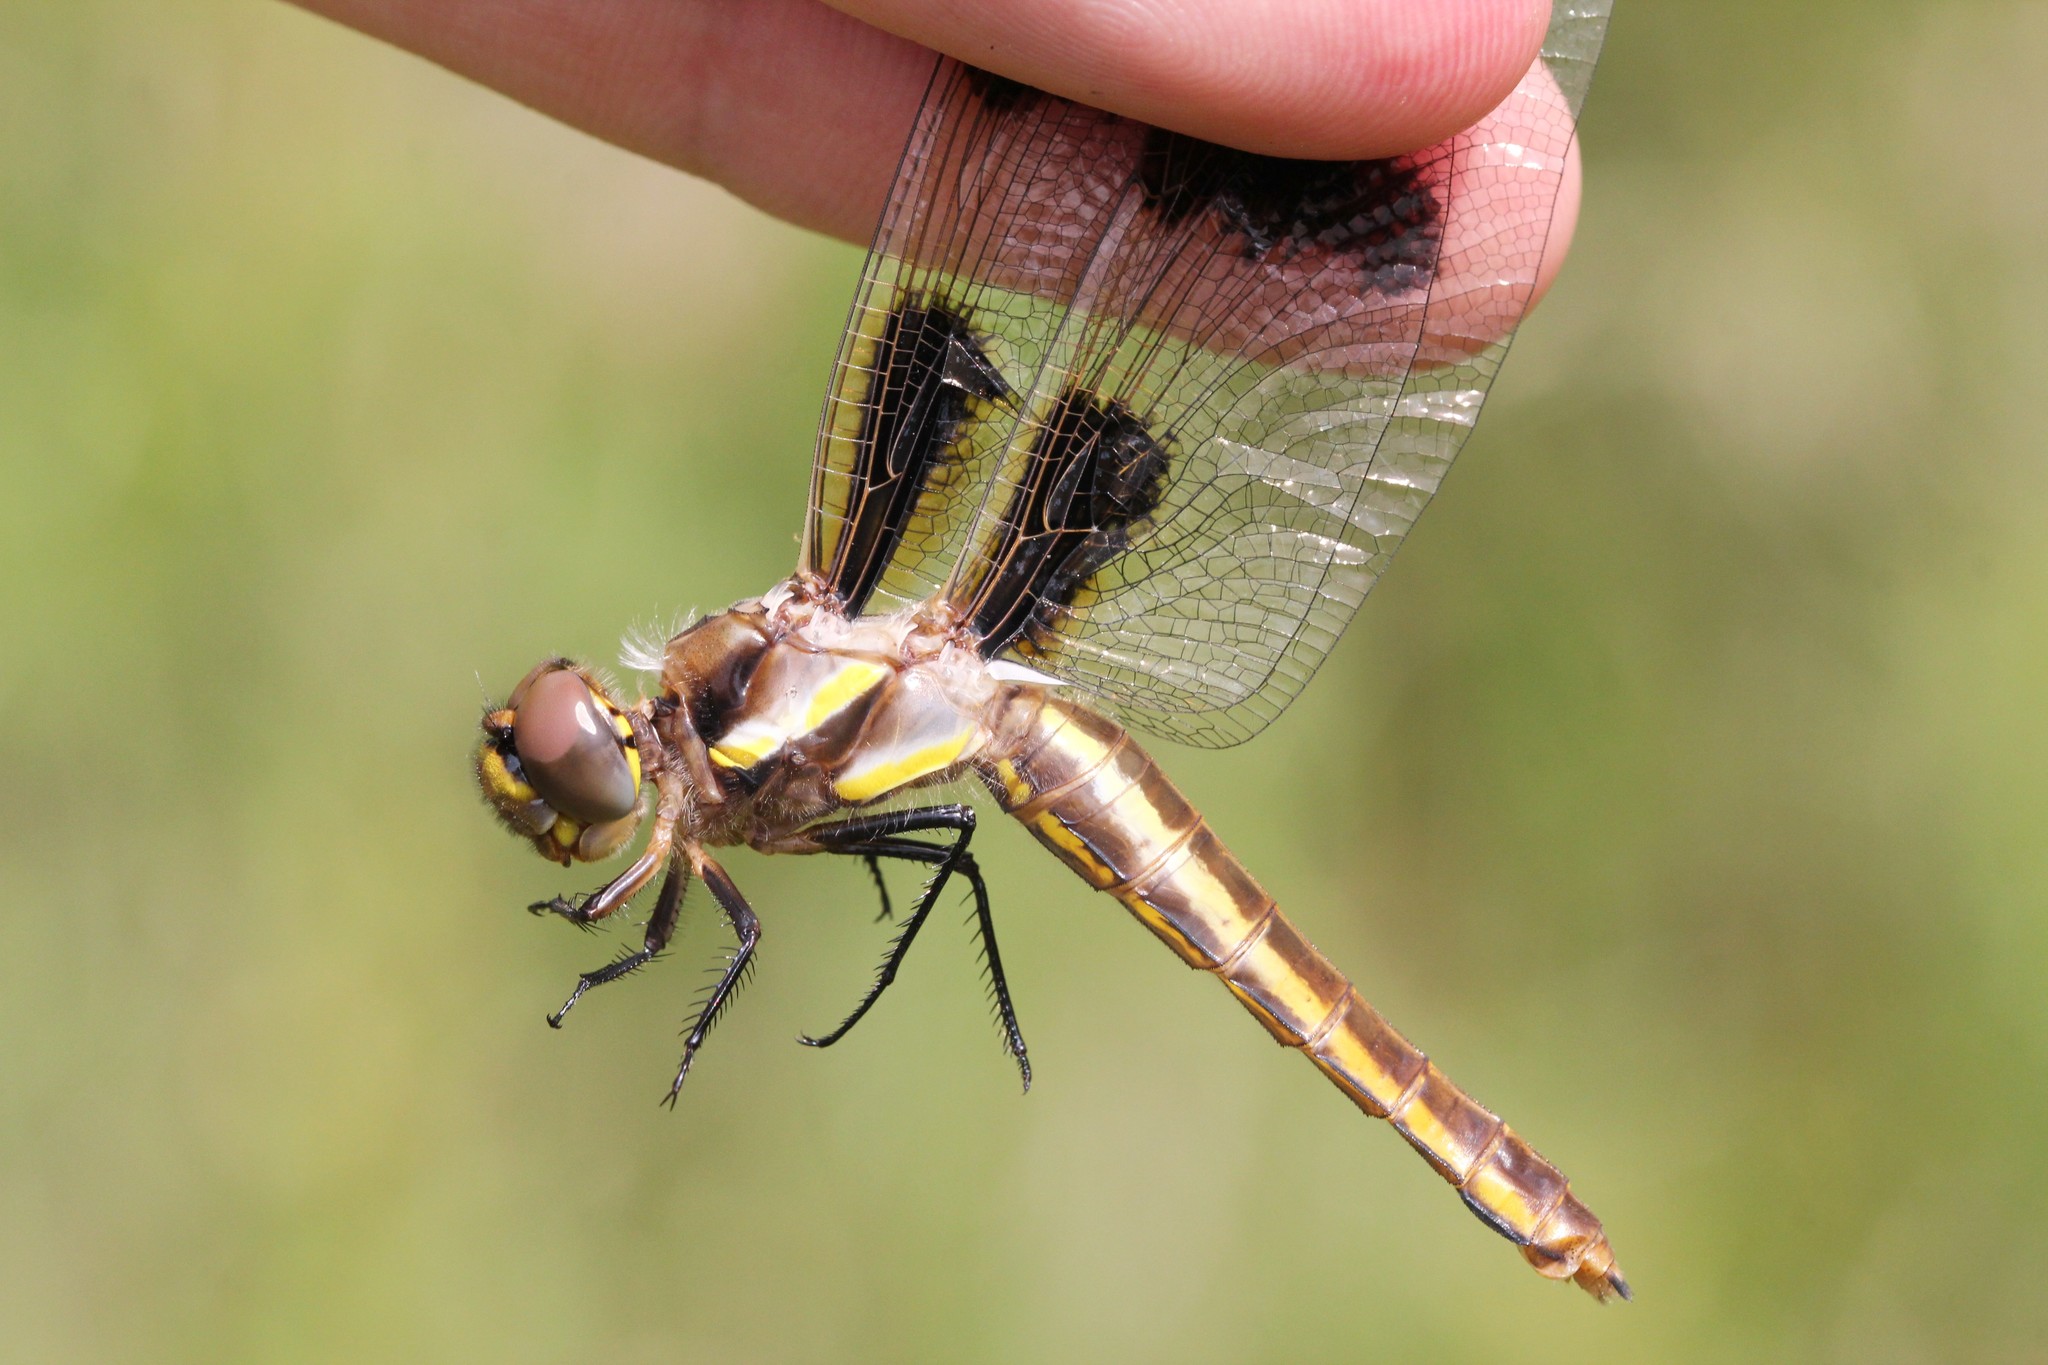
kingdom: Animalia
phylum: Arthropoda
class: Insecta
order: Odonata
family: Libellulidae
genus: Libellula
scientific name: Libellula pulchella
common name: Twelve-spotted skimmer
